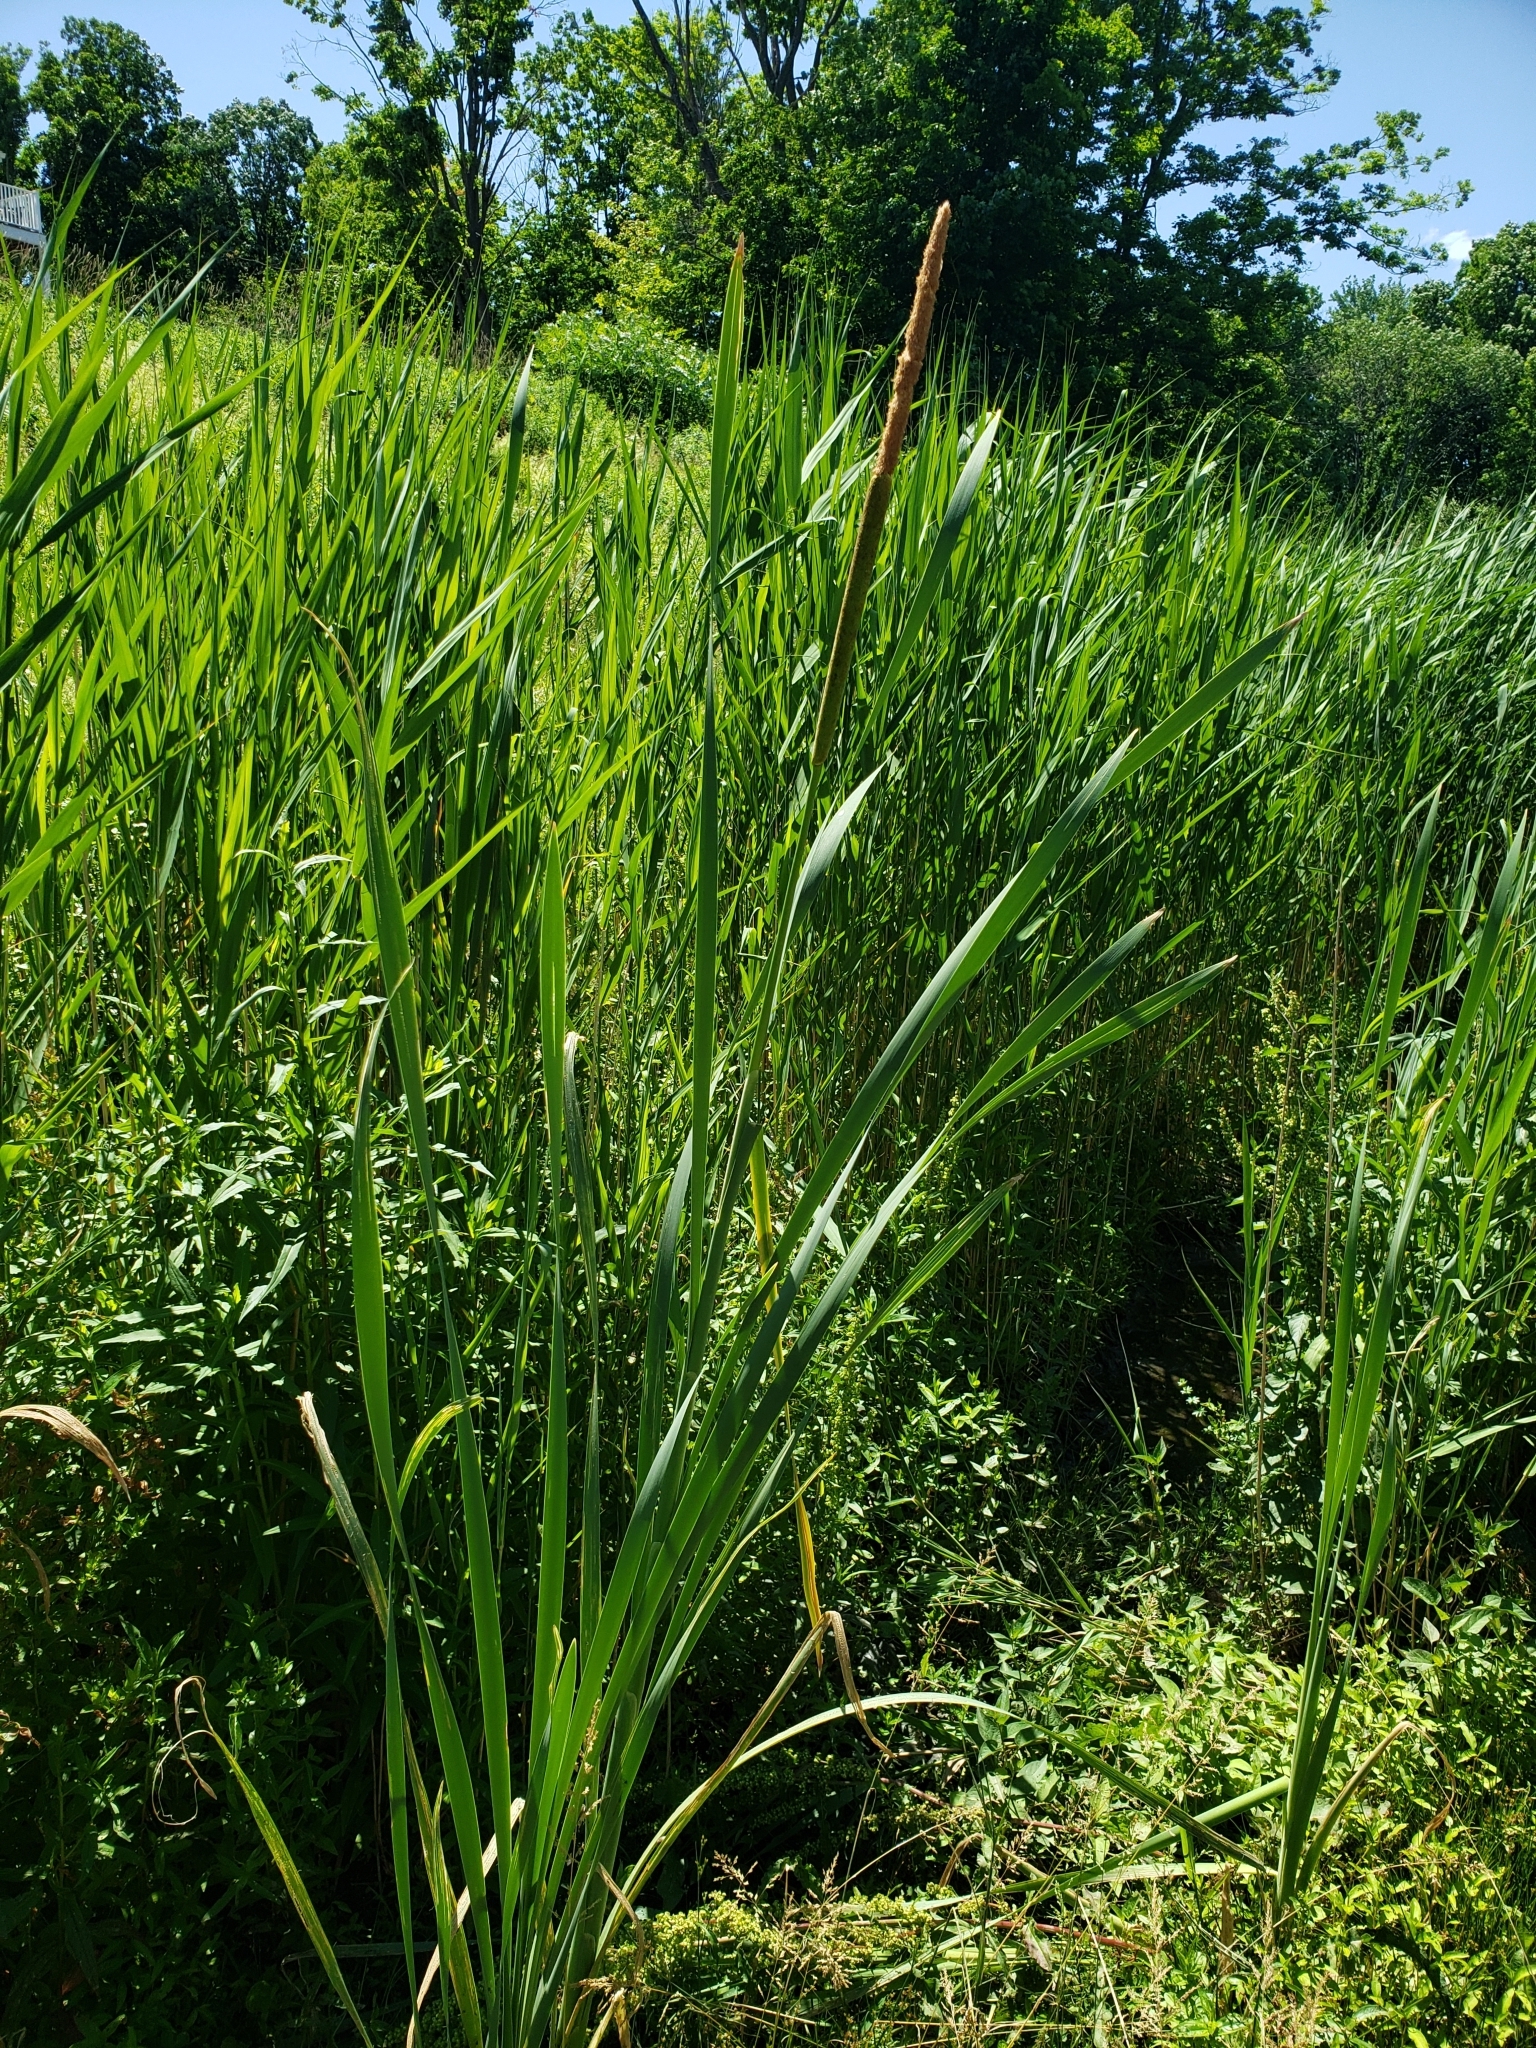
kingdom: Plantae
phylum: Tracheophyta
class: Liliopsida
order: Poales
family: Typhaceae
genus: Typha
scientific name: Typha latifolia
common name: Broadleaf cattail
